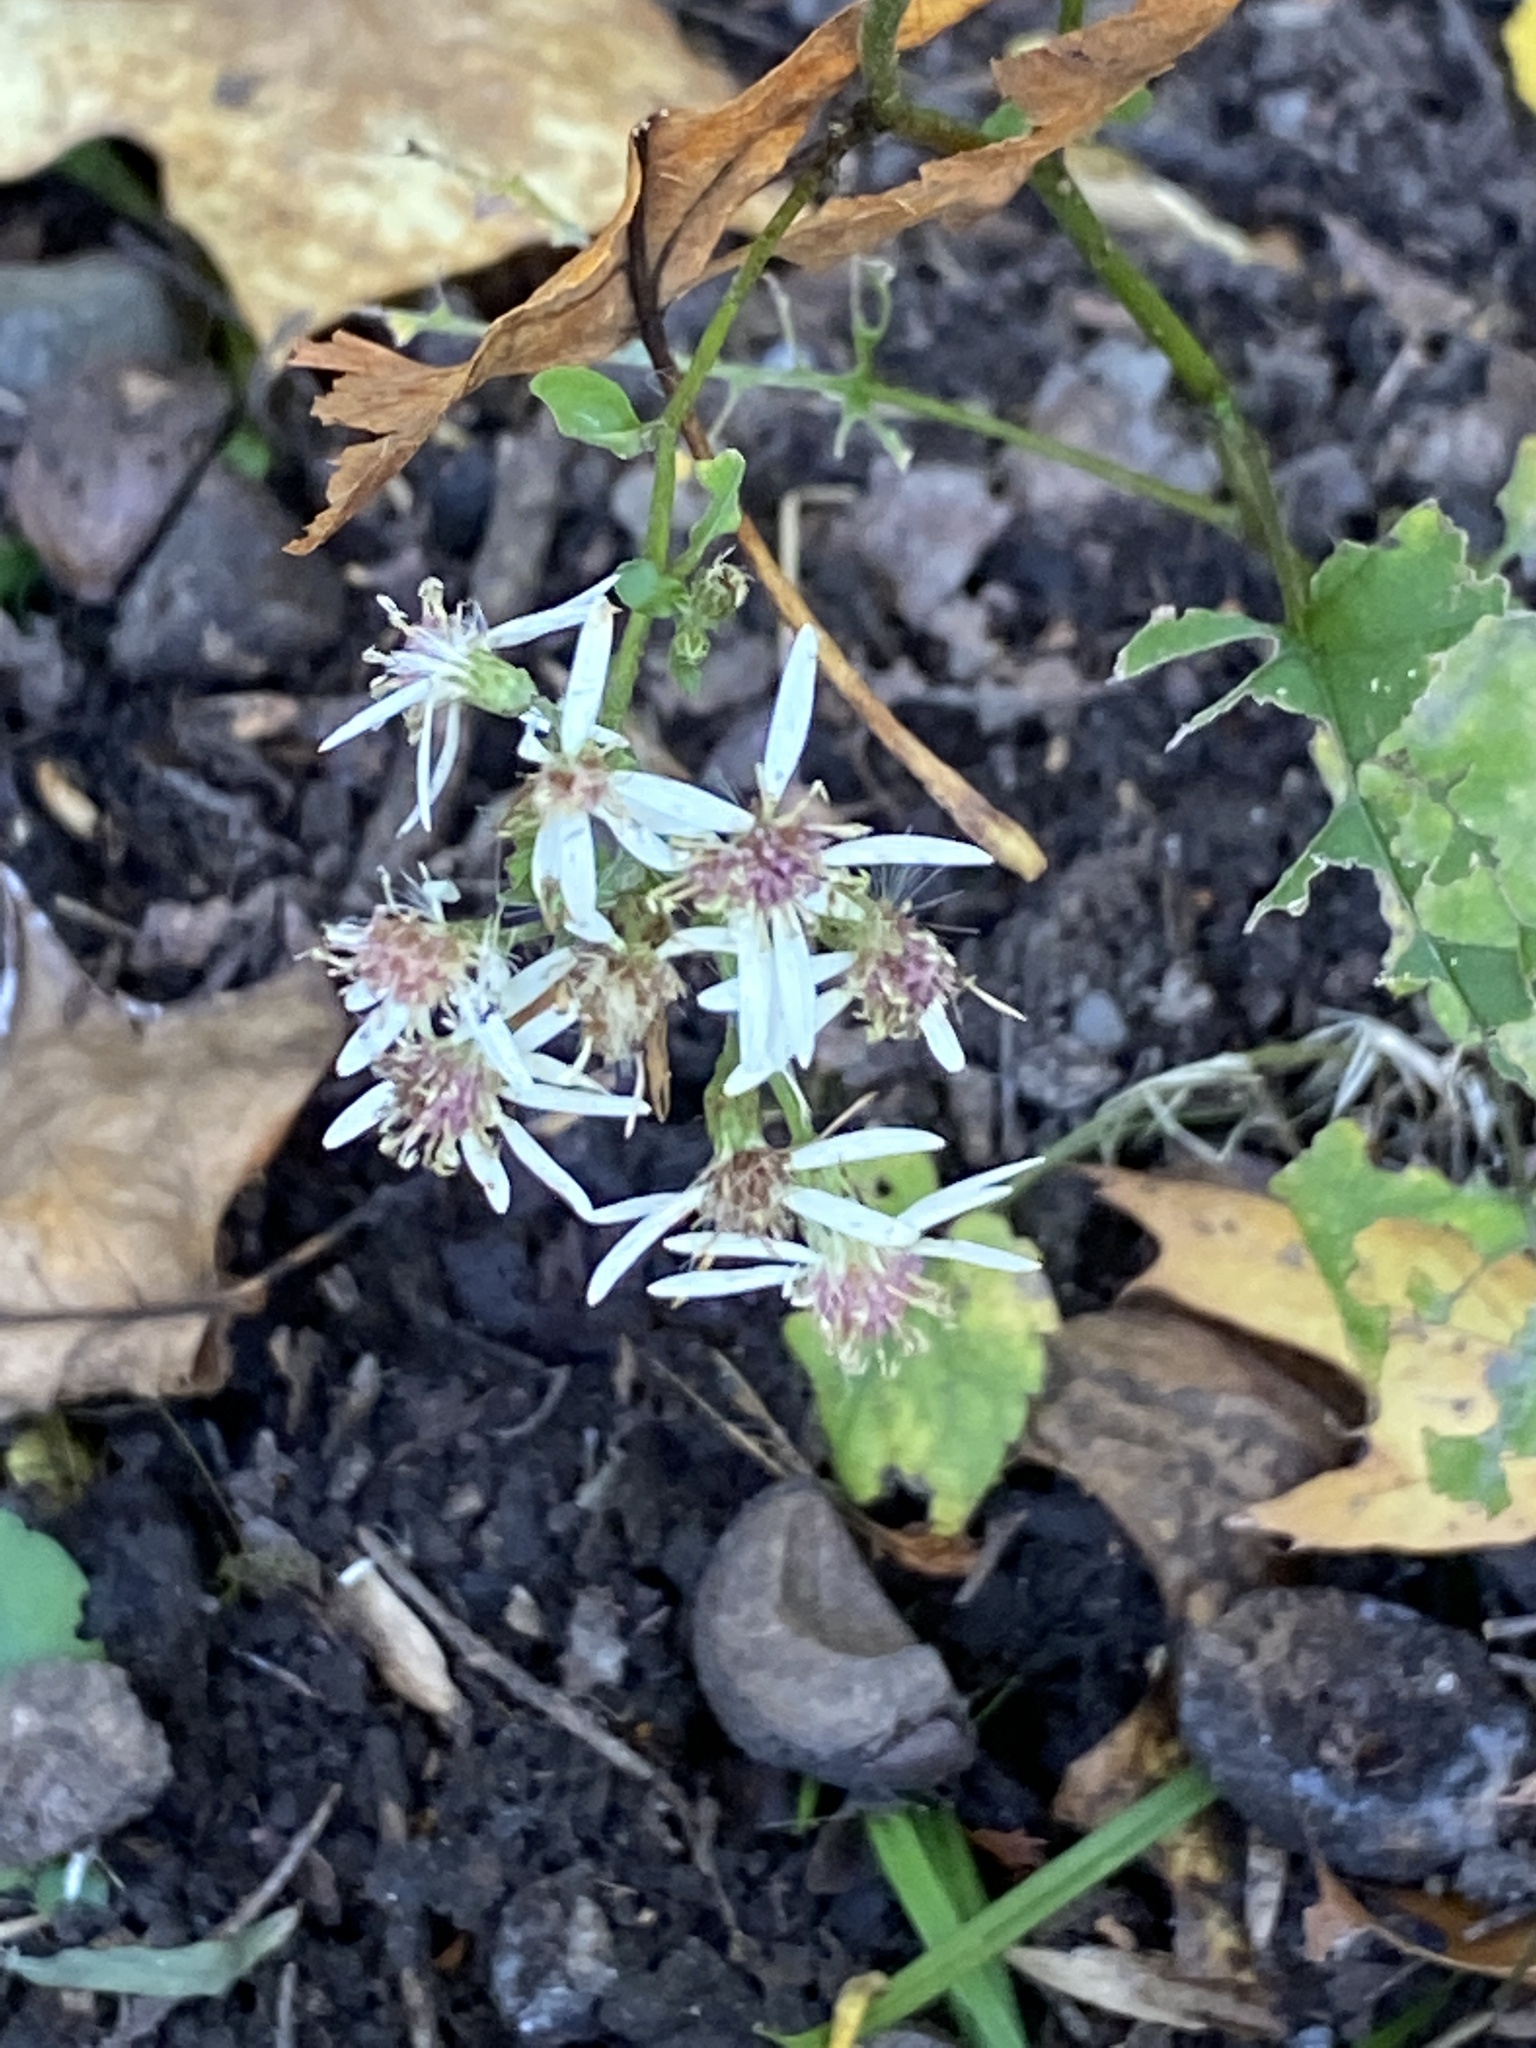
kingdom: Plantae
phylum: Tracheophyta
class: Magnoliopsida
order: Asterales
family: Asteraceae
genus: Eurybia
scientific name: Eurybia divaricata
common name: White wood aster
